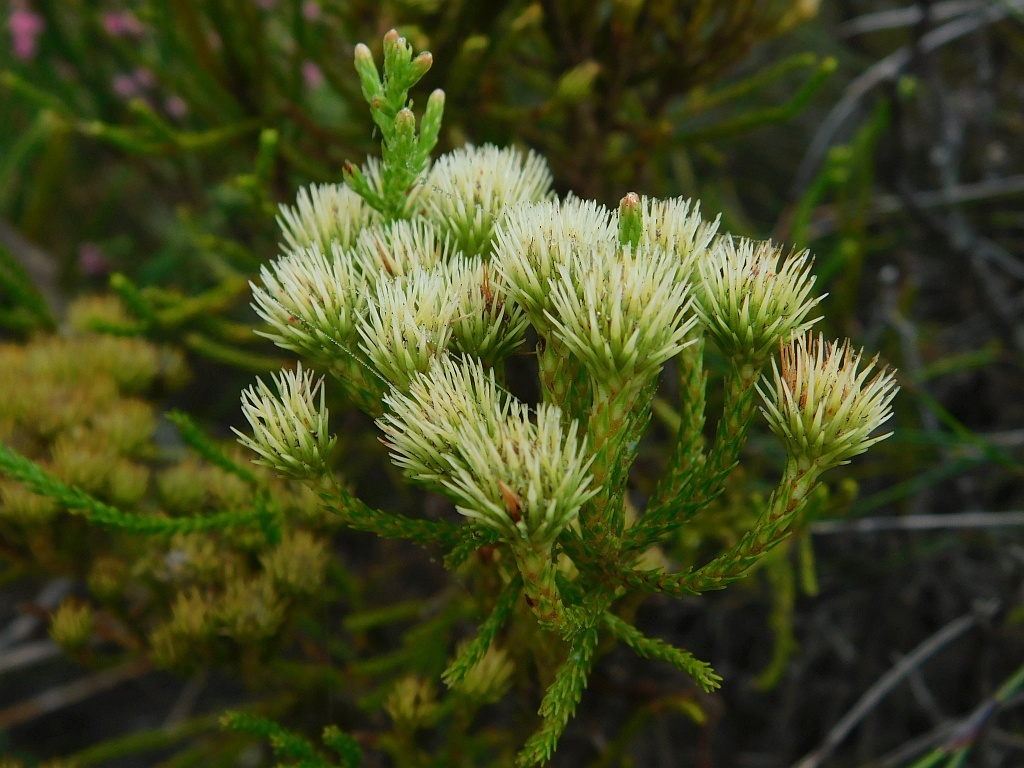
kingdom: Plantae
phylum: Tracheophyta
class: Magnoliopsida
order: Bruniales
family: Bruniaceae
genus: Brunia
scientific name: Brunia paleacea
